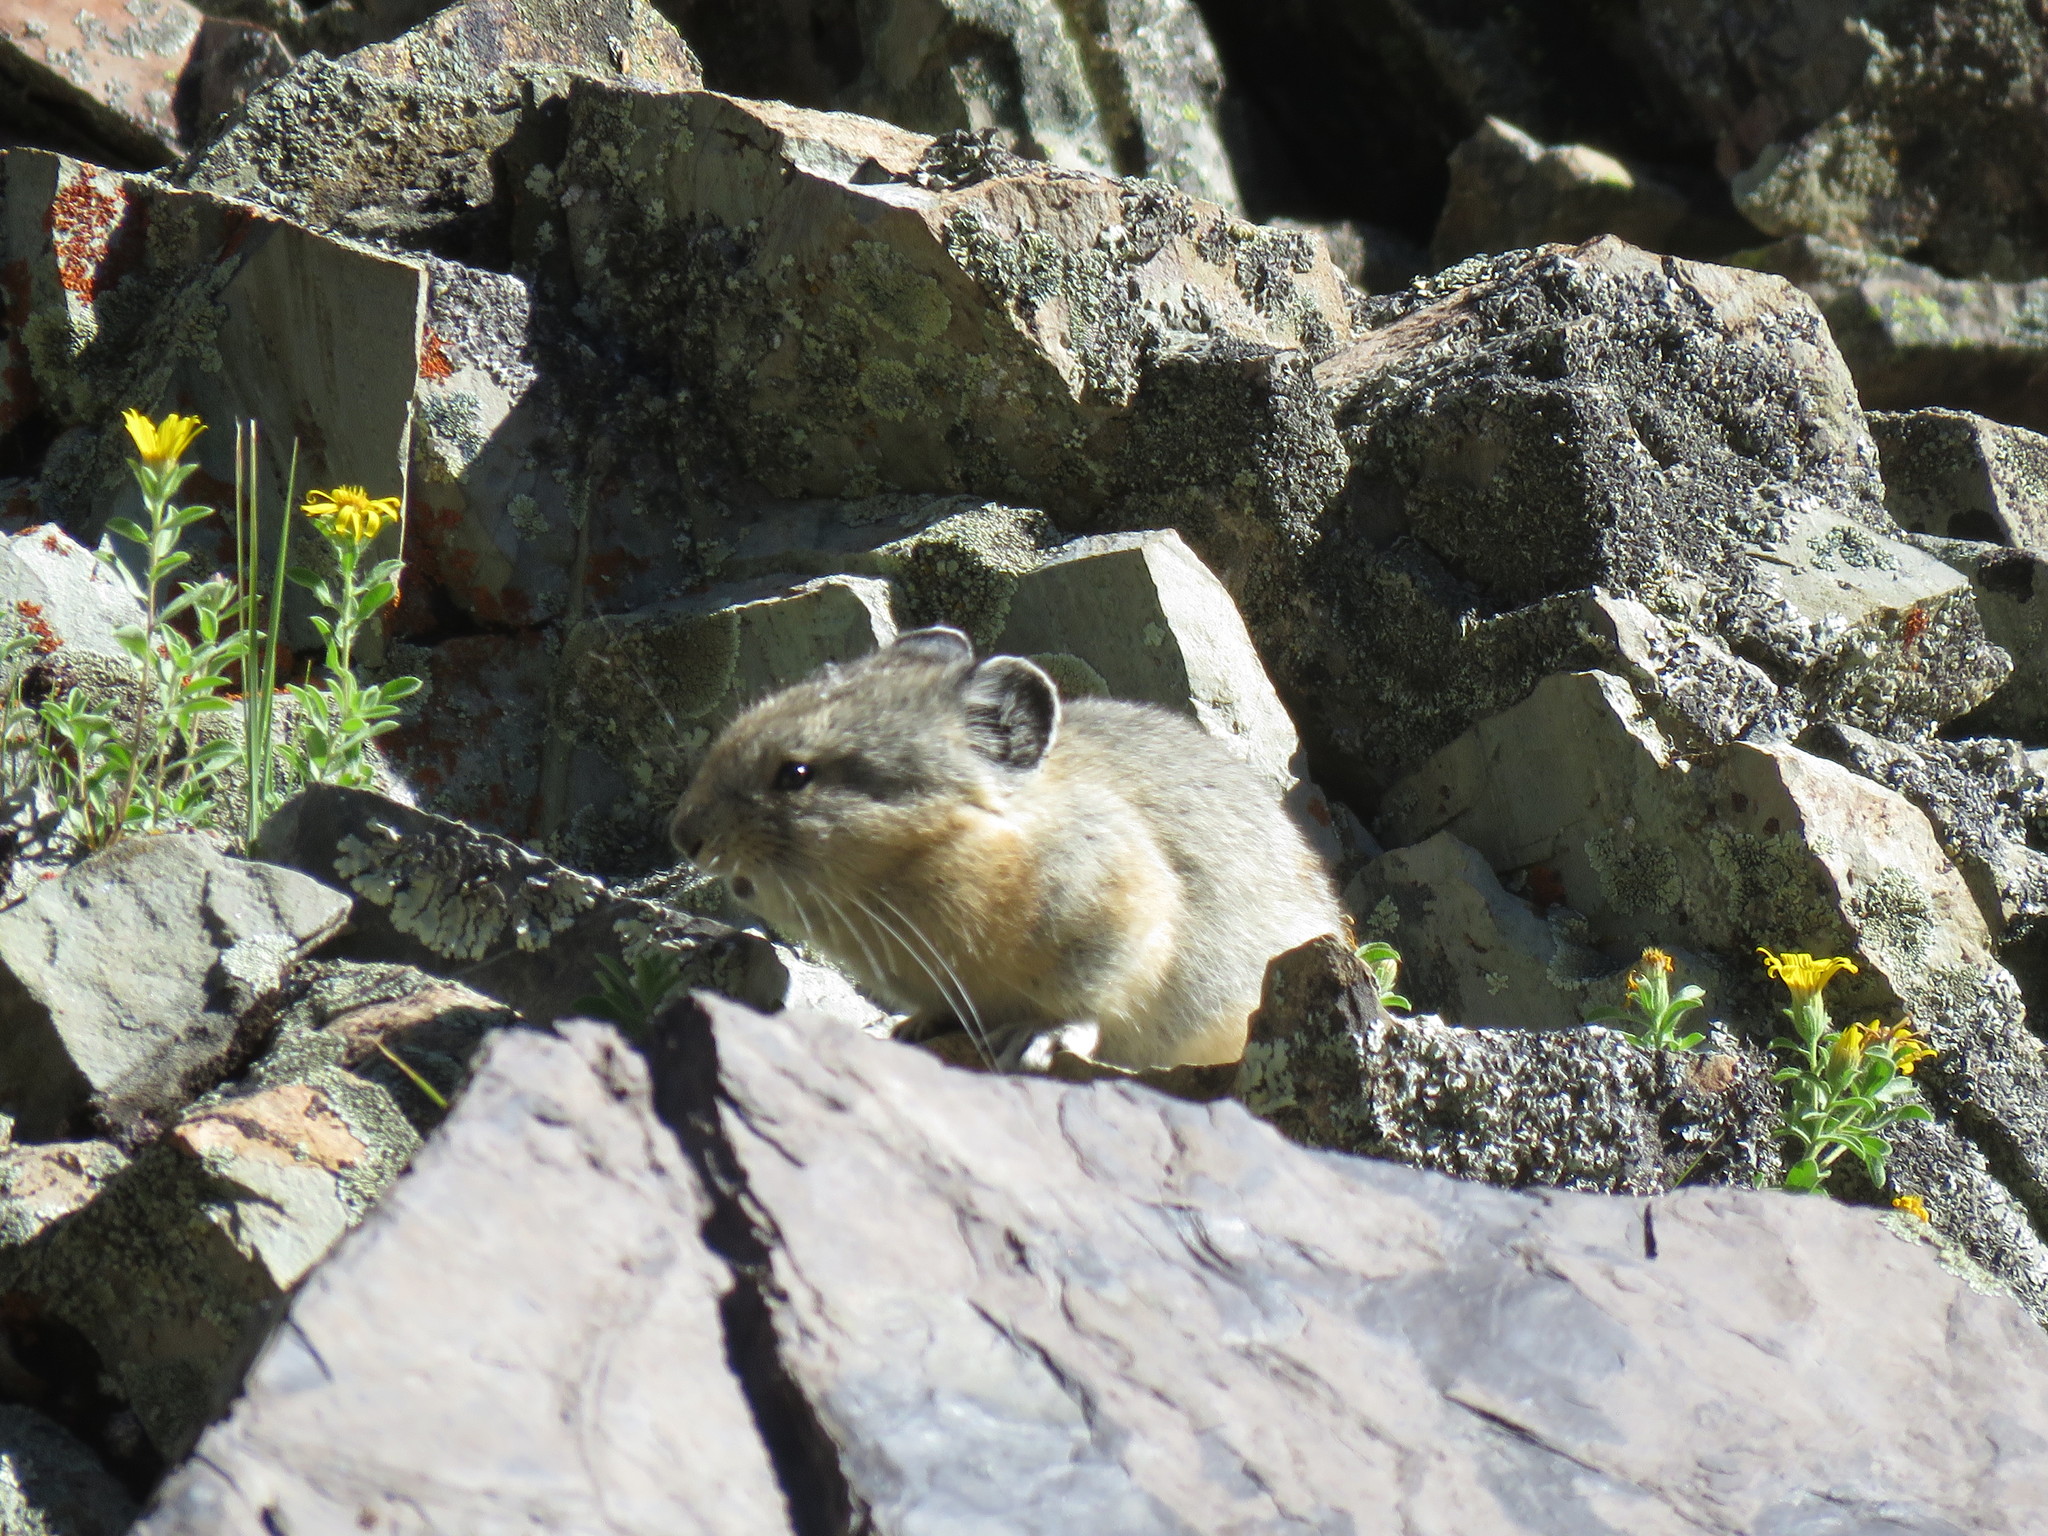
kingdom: Animalia
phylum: Chordata
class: Mammalia
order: Lagomorpha
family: Ochotonidae
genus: Ochotona
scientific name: Ochotona princeps
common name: American pika
